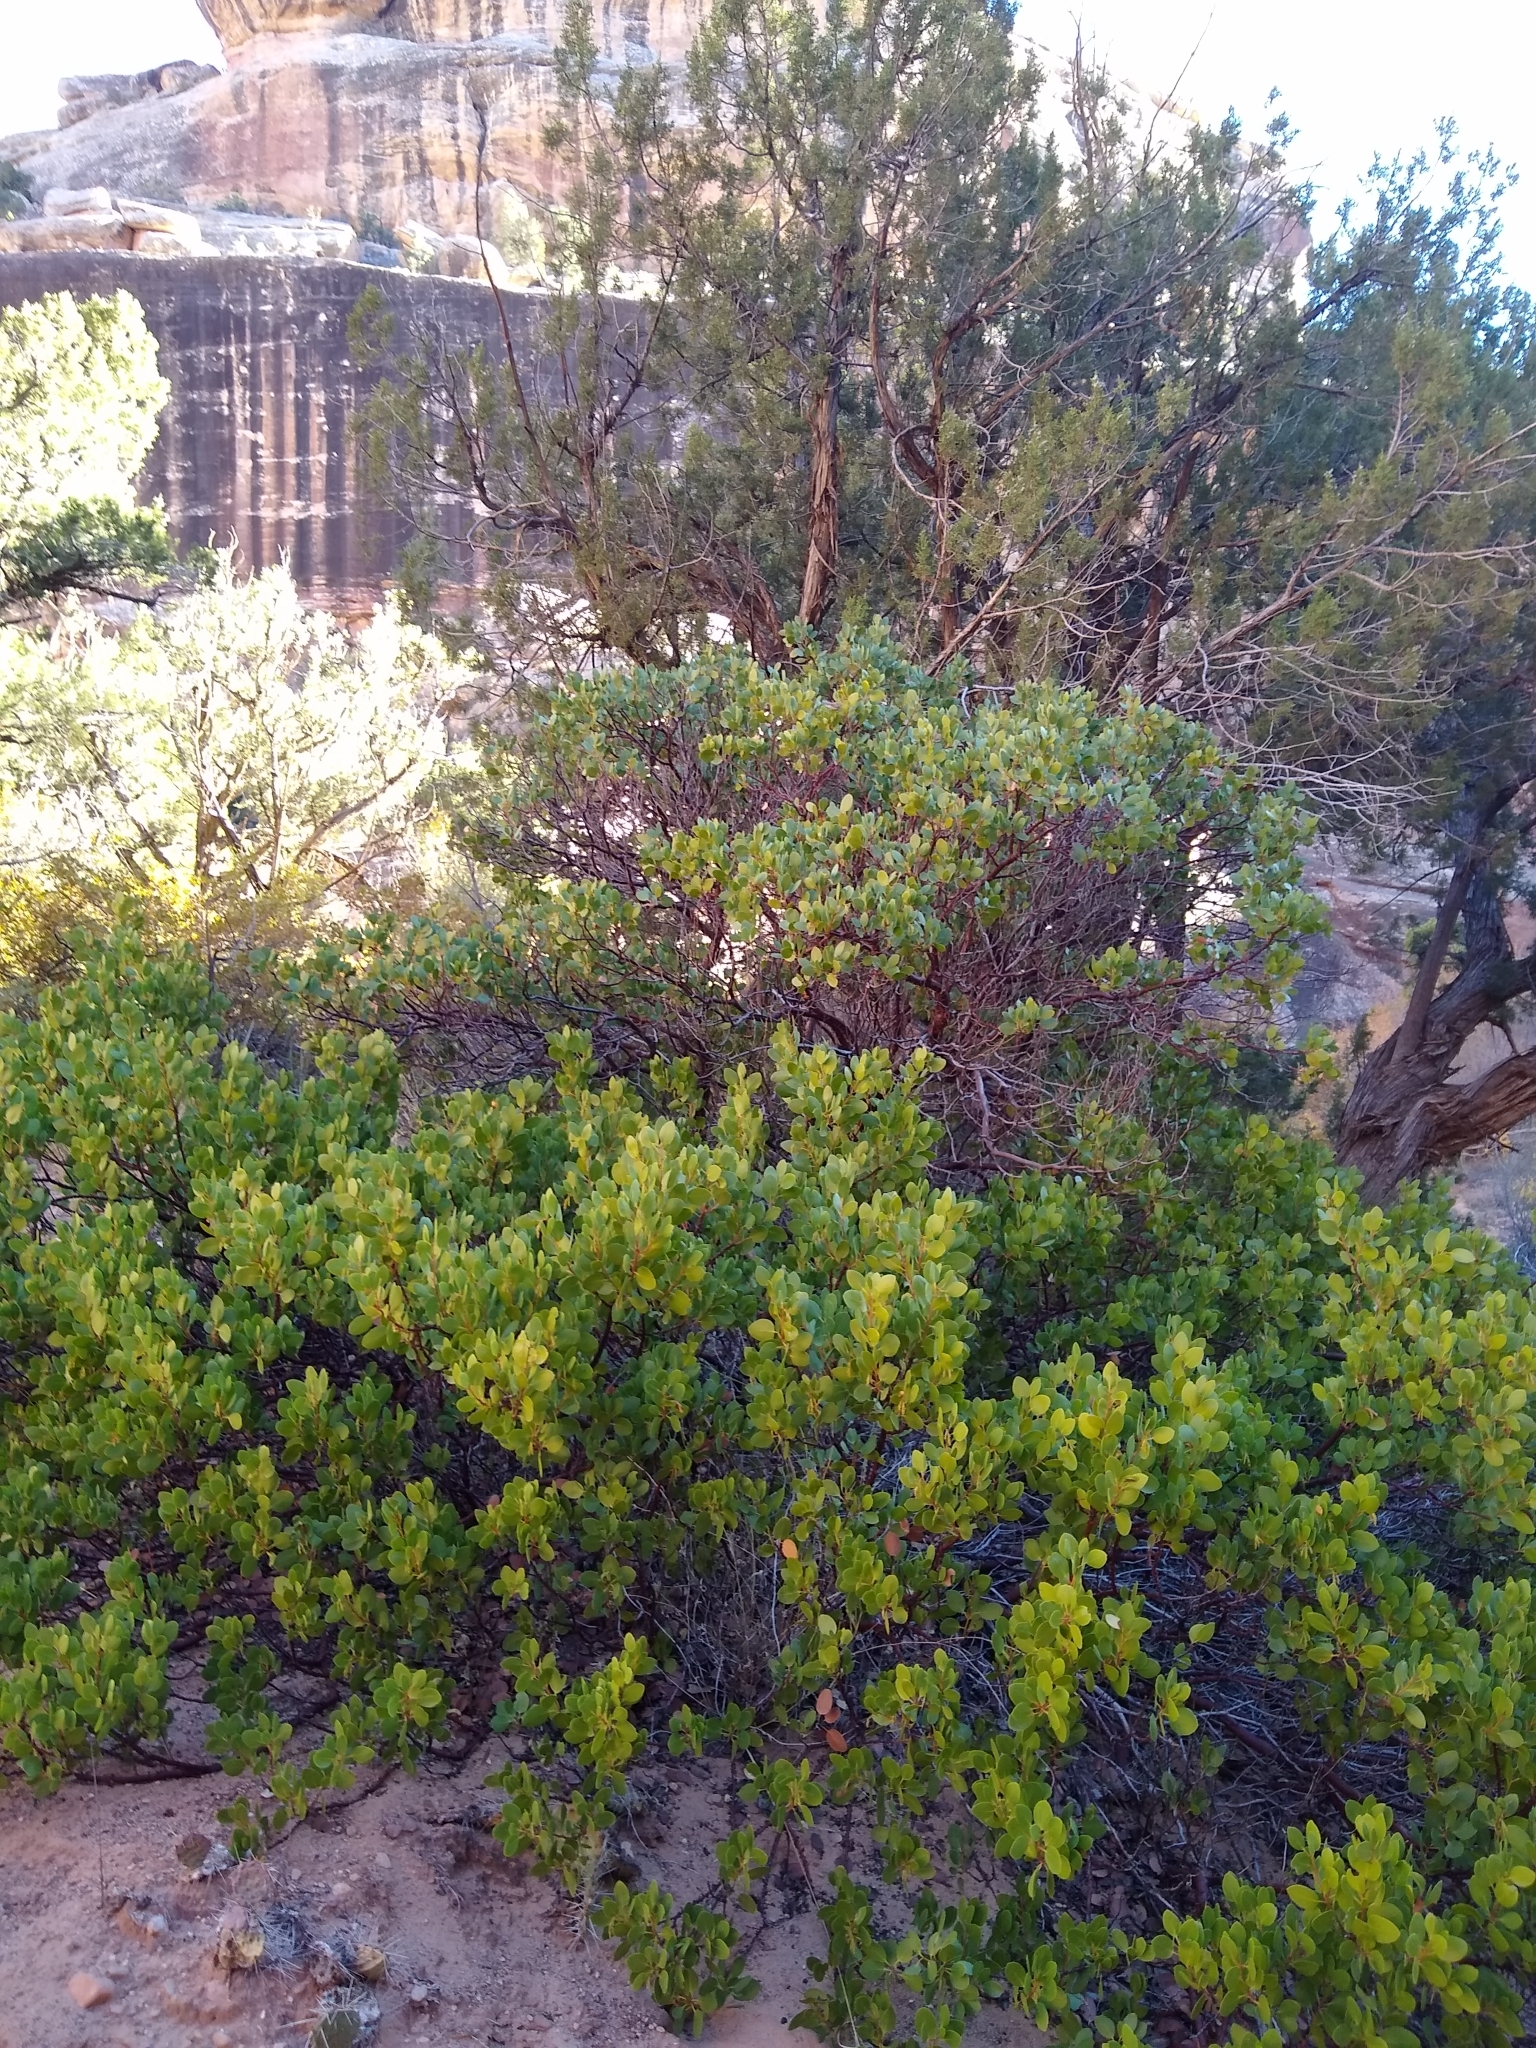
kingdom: Plantae
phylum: Tracheophyta
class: Magnoliopsida
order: Ericales
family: Ericaceae
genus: Arctostaphylos
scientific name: Arctostaphylos patula
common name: Green-leaf manzanita
